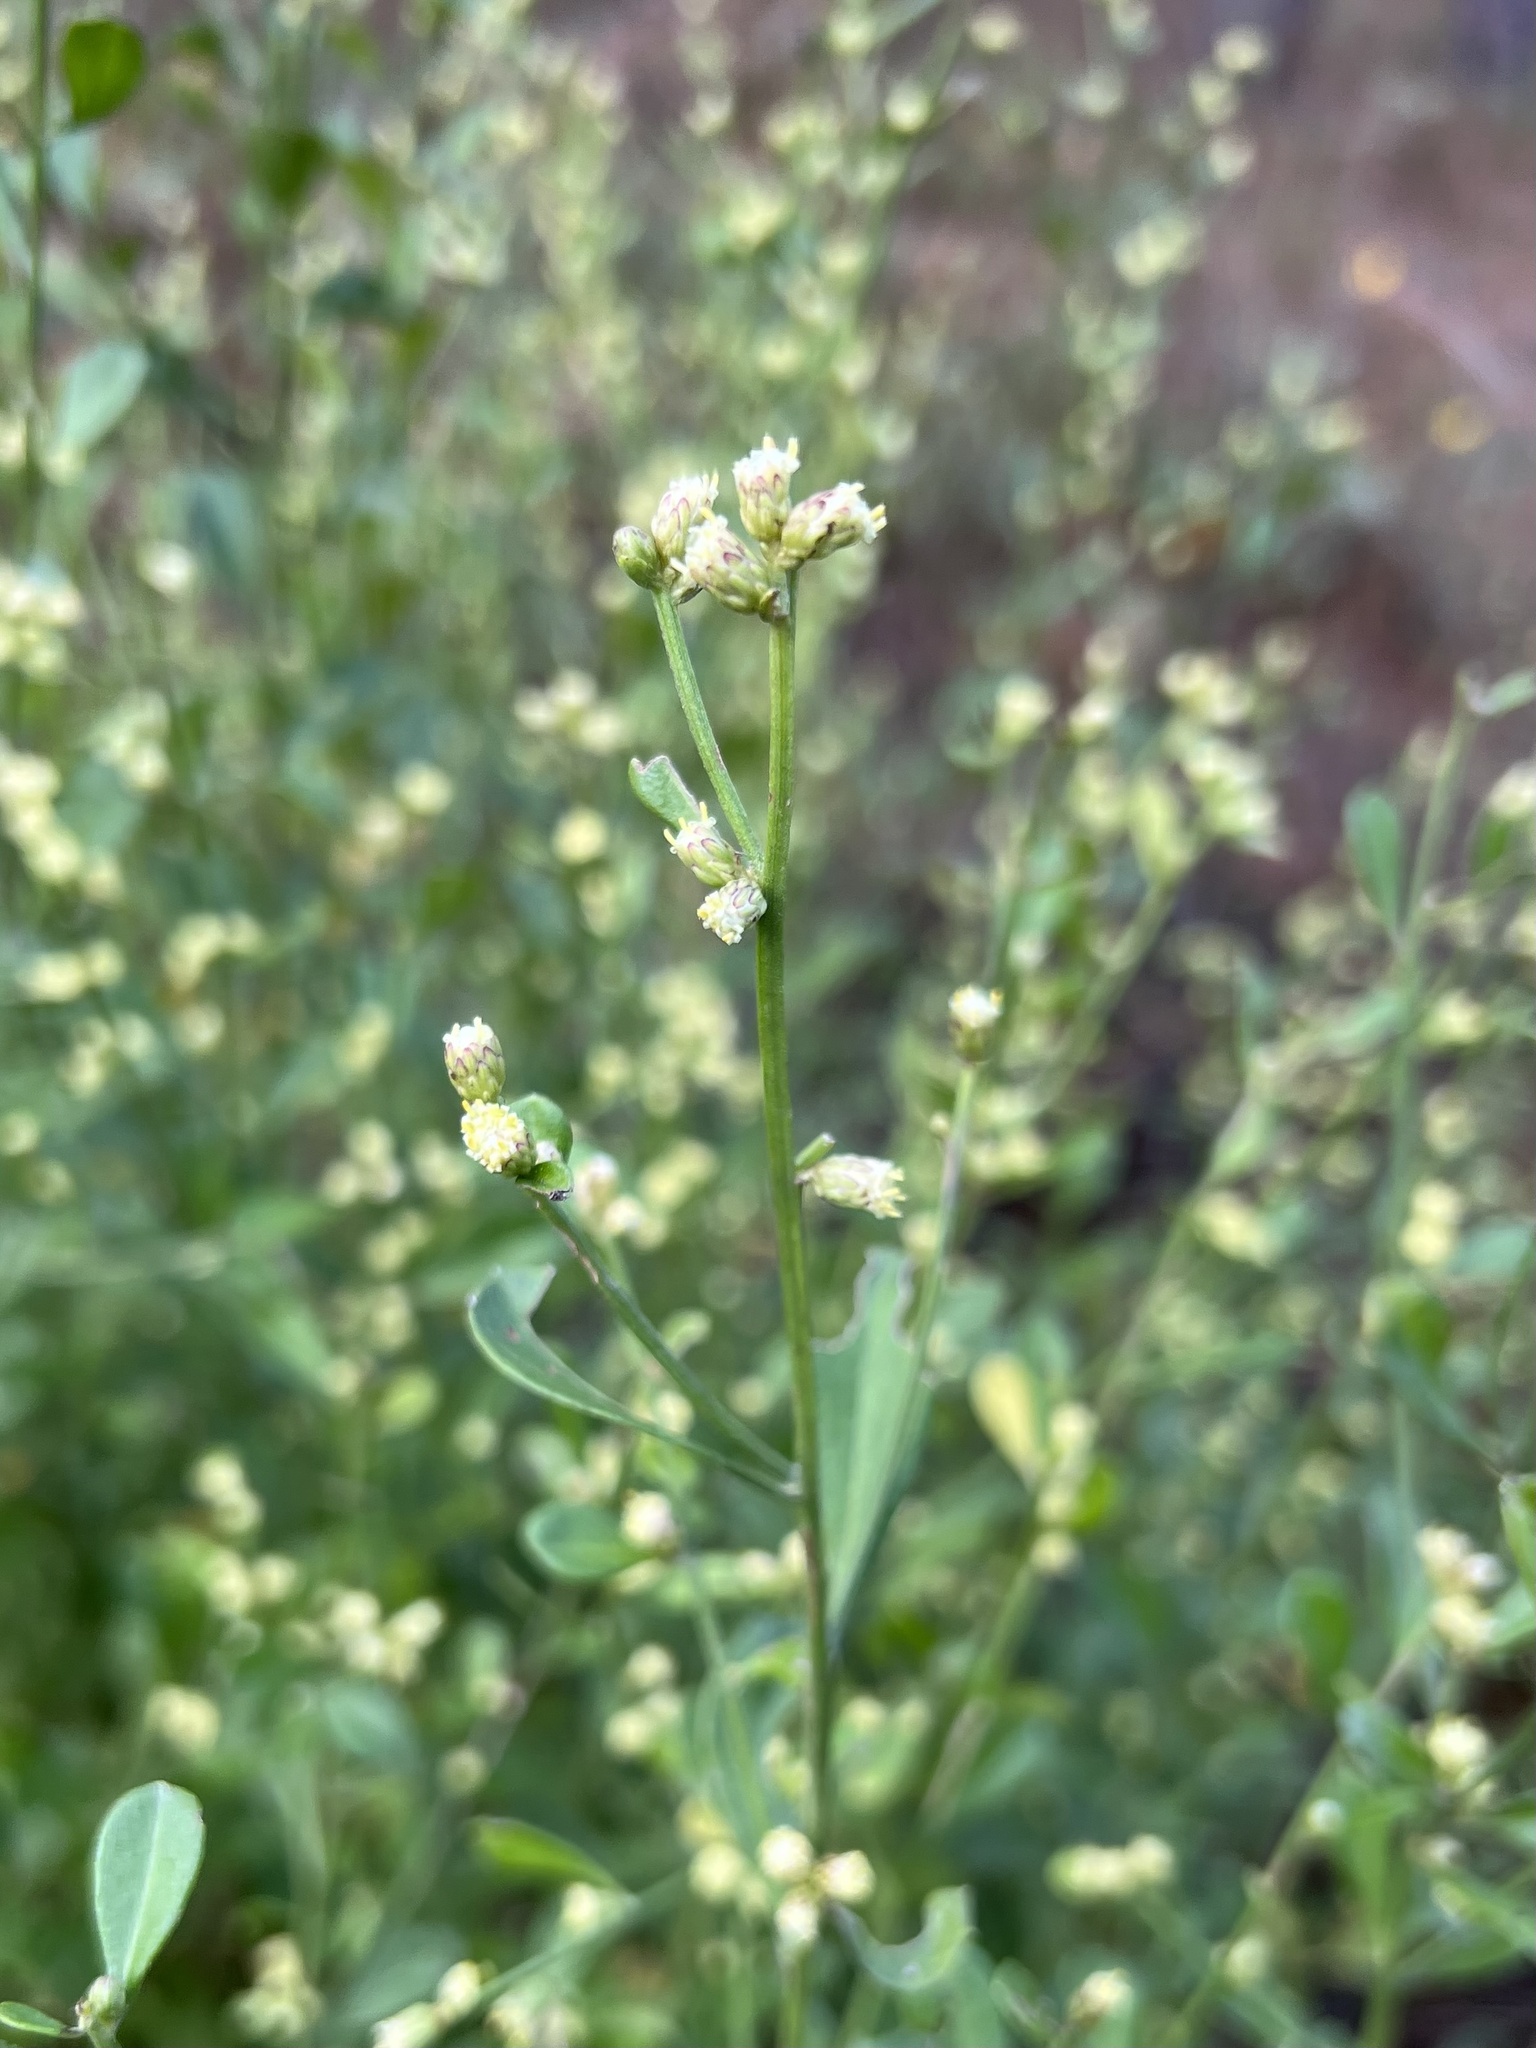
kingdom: Plantae
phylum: Tracheophyta
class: Magnoliopsida
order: Asterales
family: Asteraceae
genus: Baccharis
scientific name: Baccharis glomeruliflora
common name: Silverling groundsel bush
